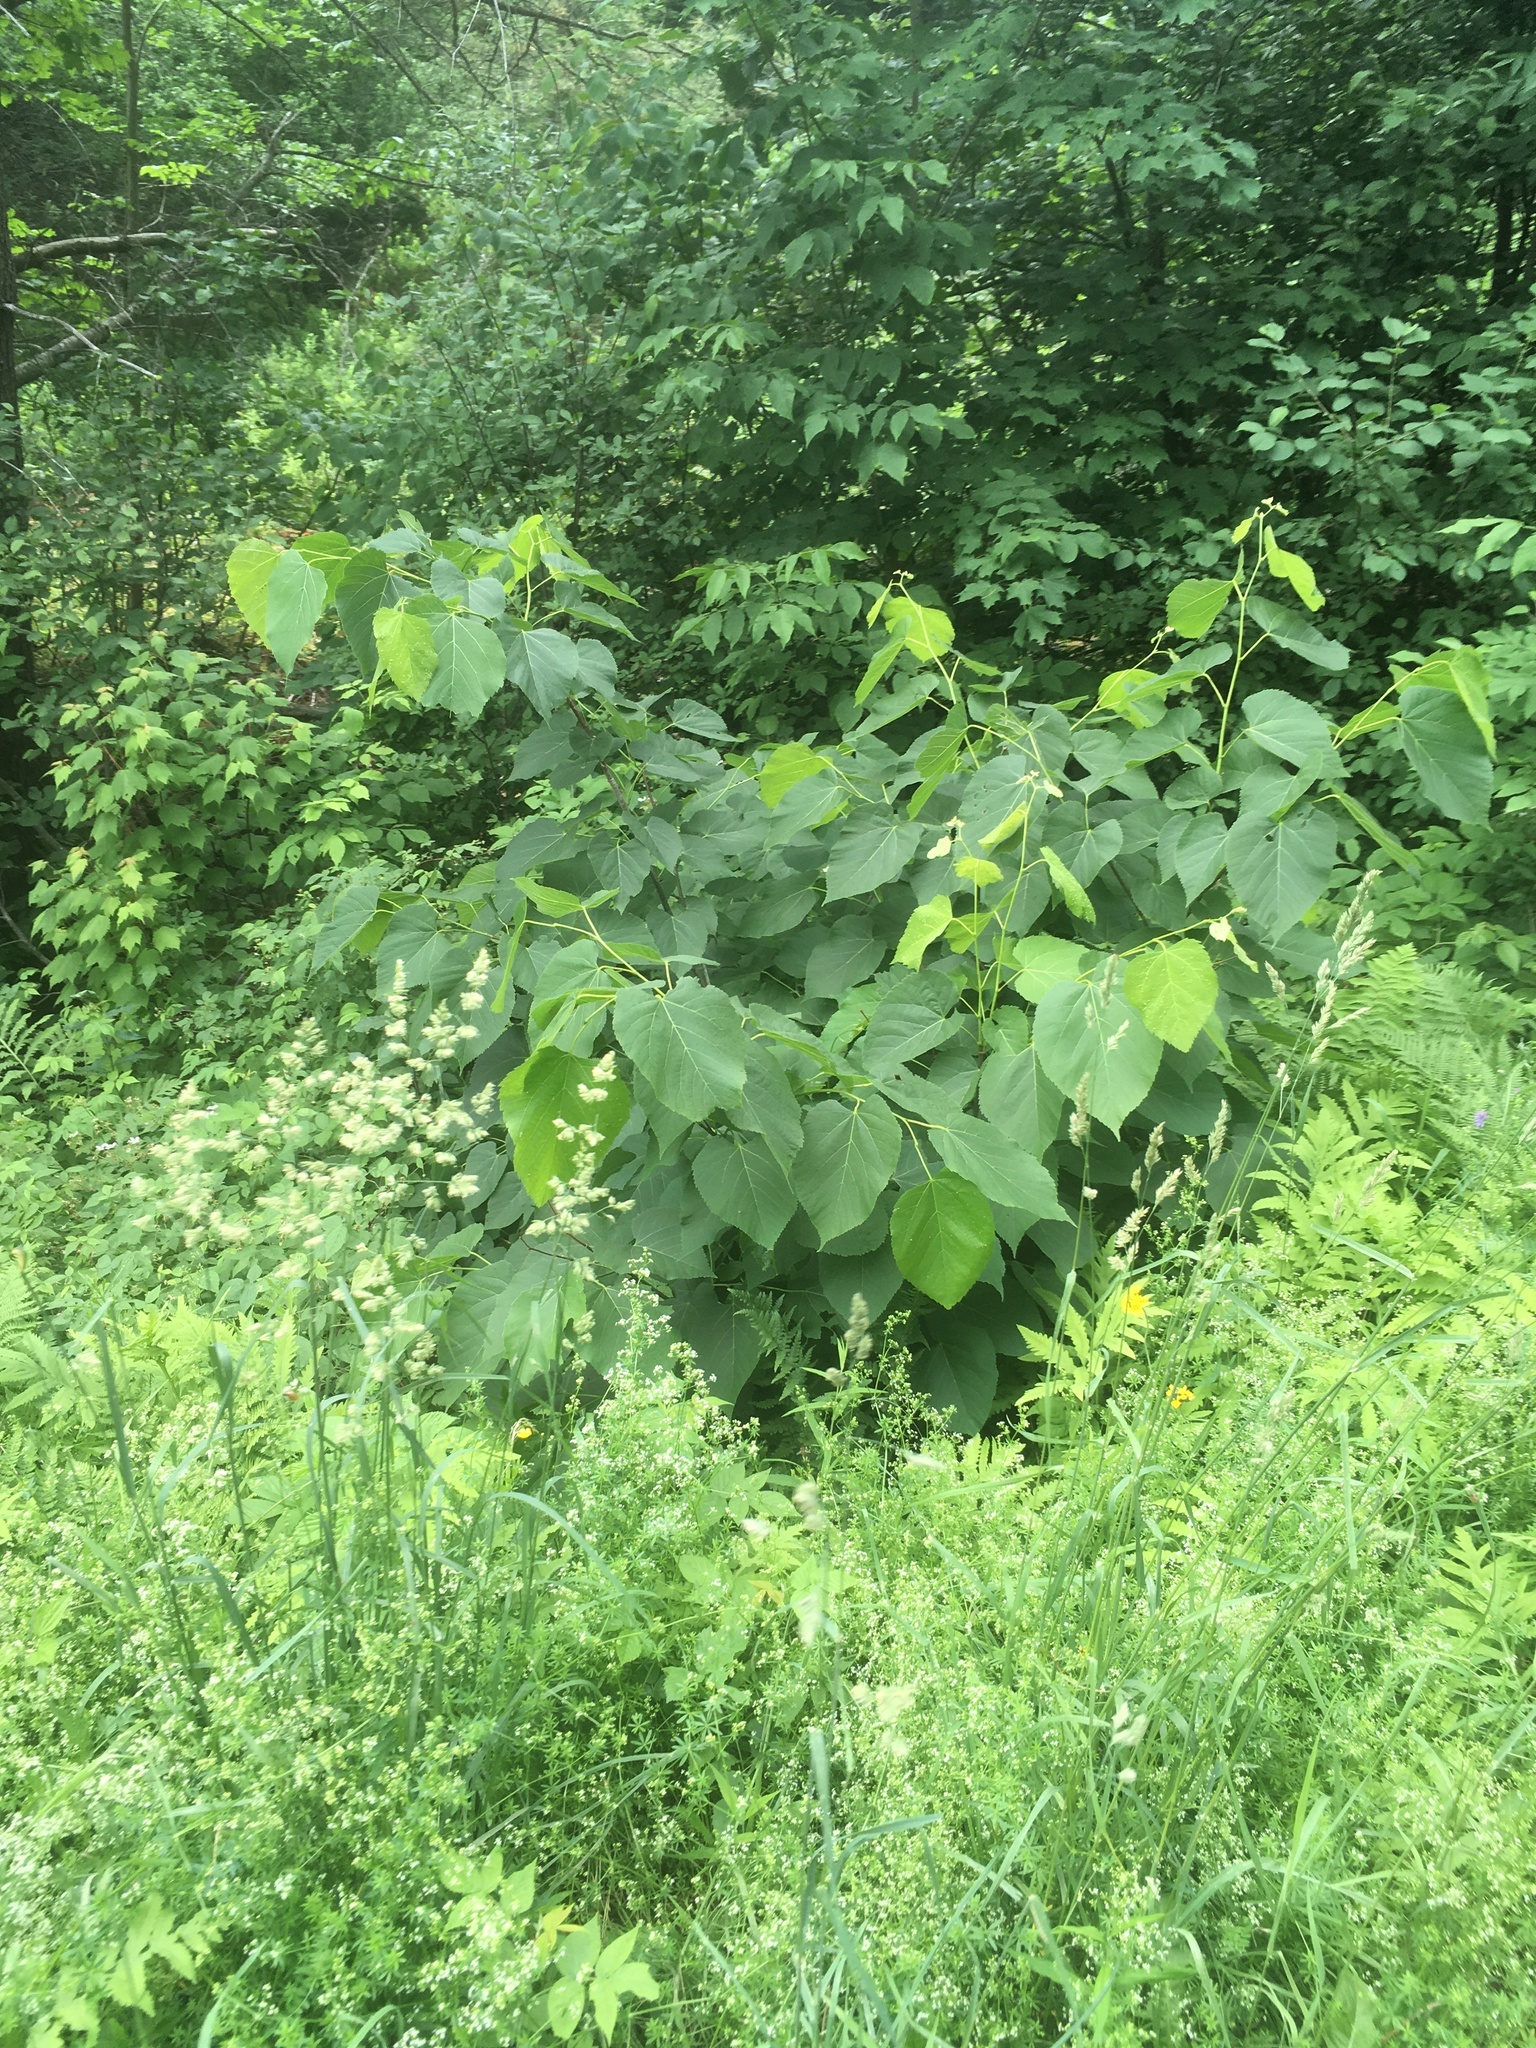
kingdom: Plantae
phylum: Tracheophyta
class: Magnoliopsida
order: Malvales
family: Malvaceae
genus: Tilia
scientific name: Tilia americana
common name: Basswood
